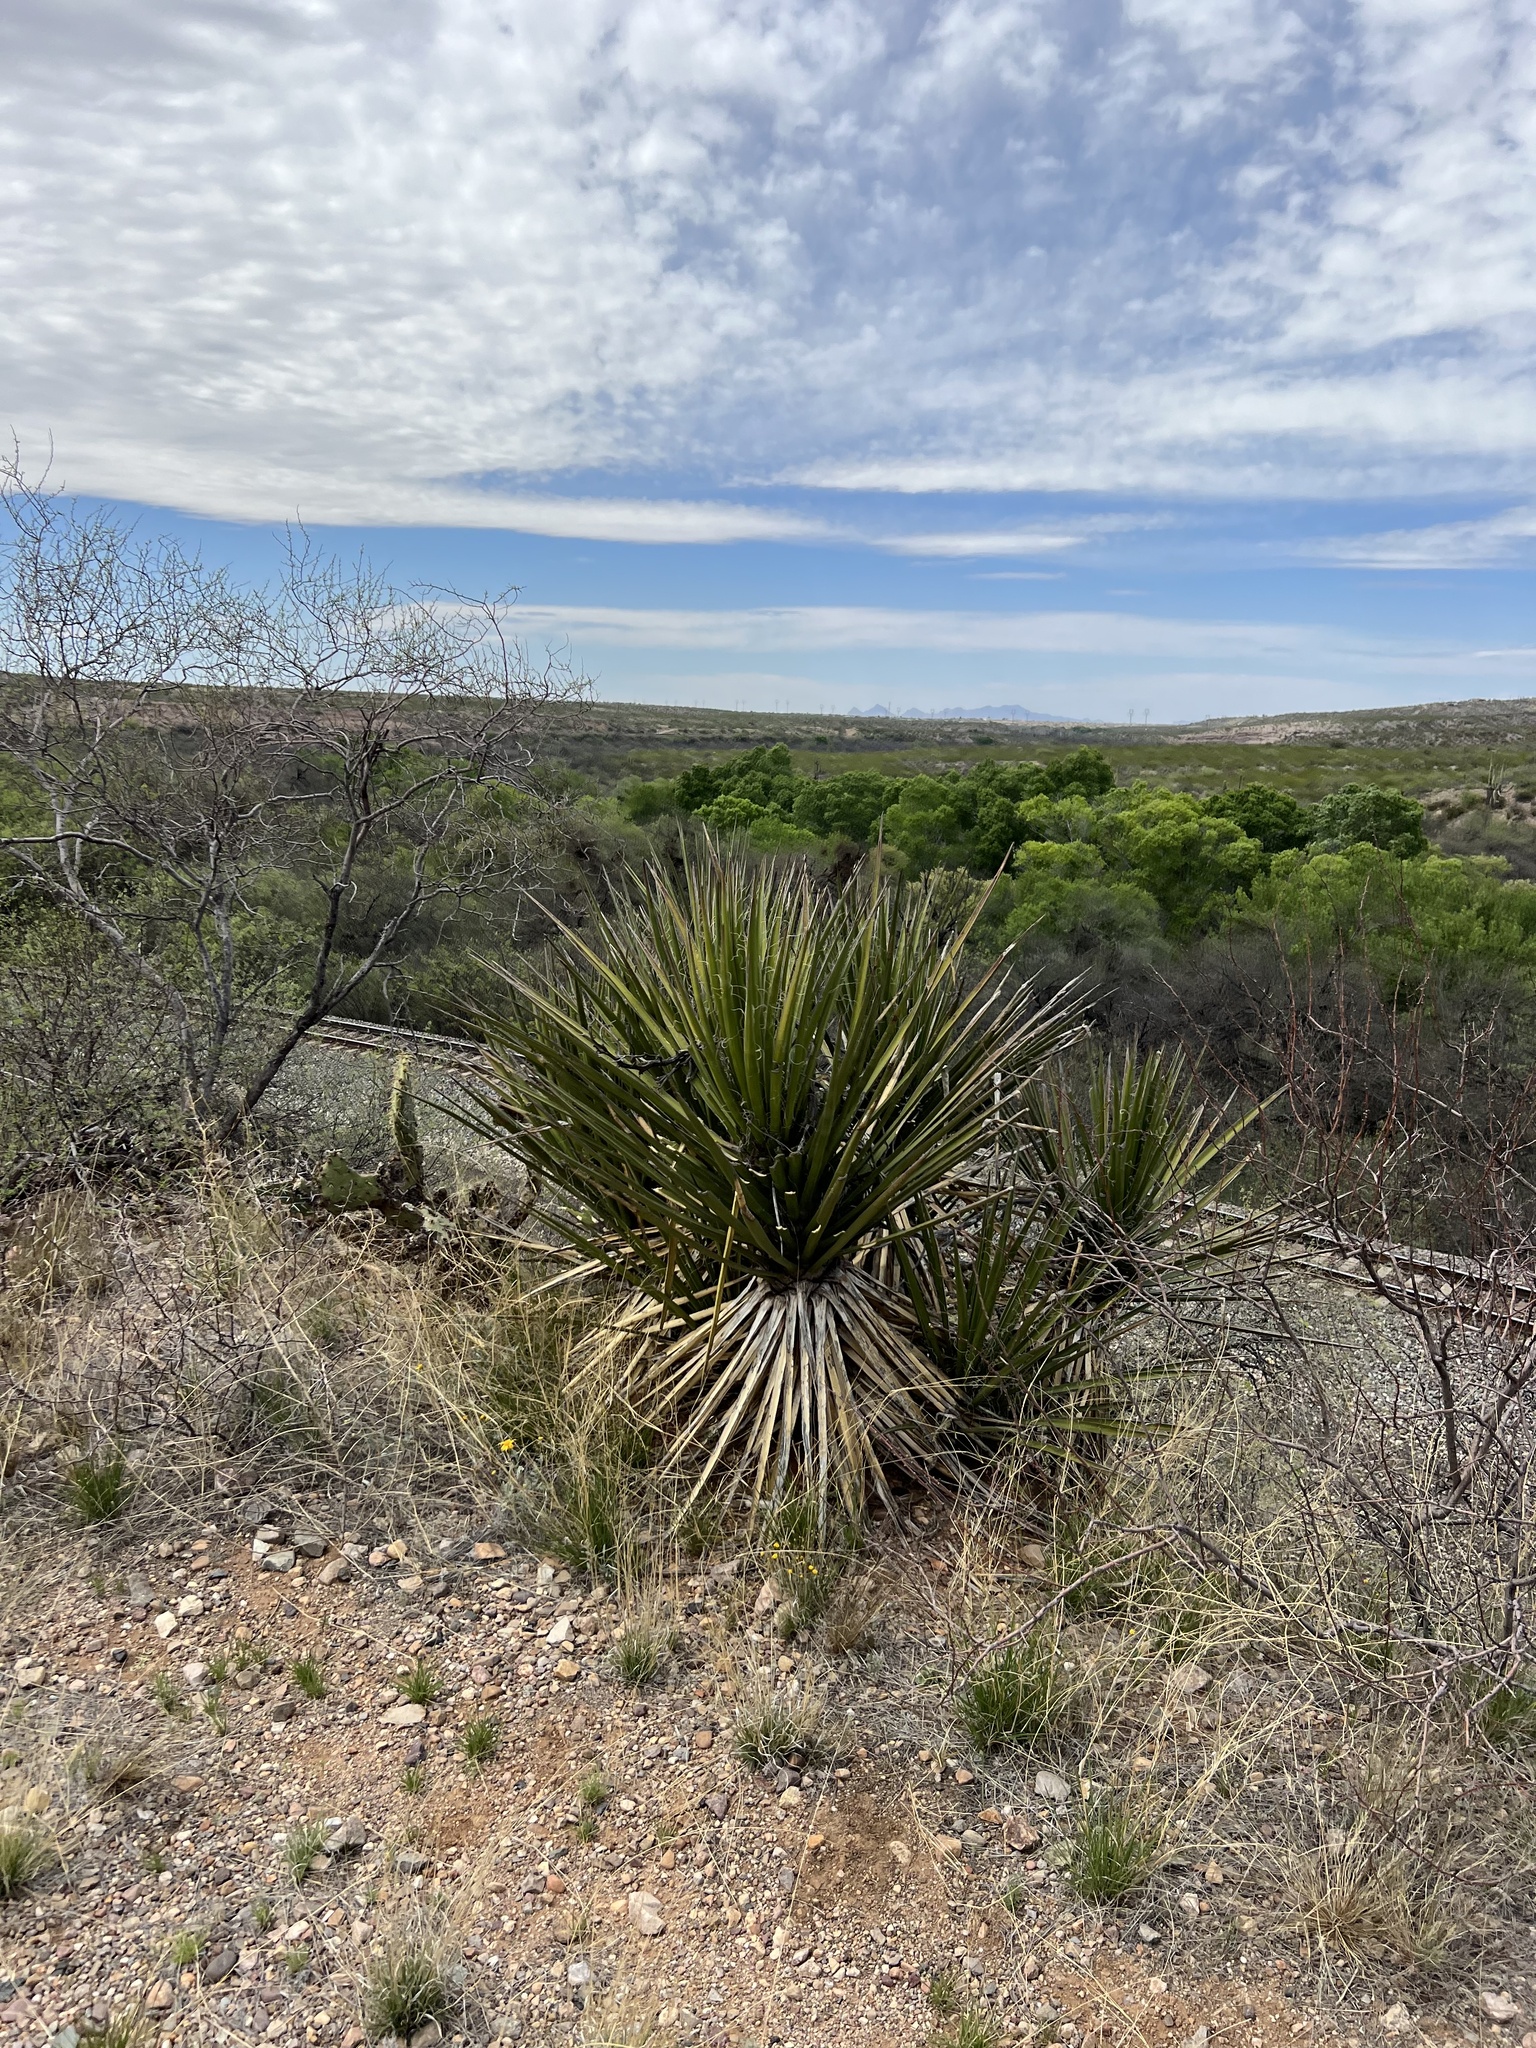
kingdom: Plantae
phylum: Tracheophyta
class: Liliopsida
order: Asparagales
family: Asparagaceae
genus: Yucca
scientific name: Yucca baccata
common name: Banana yucca
